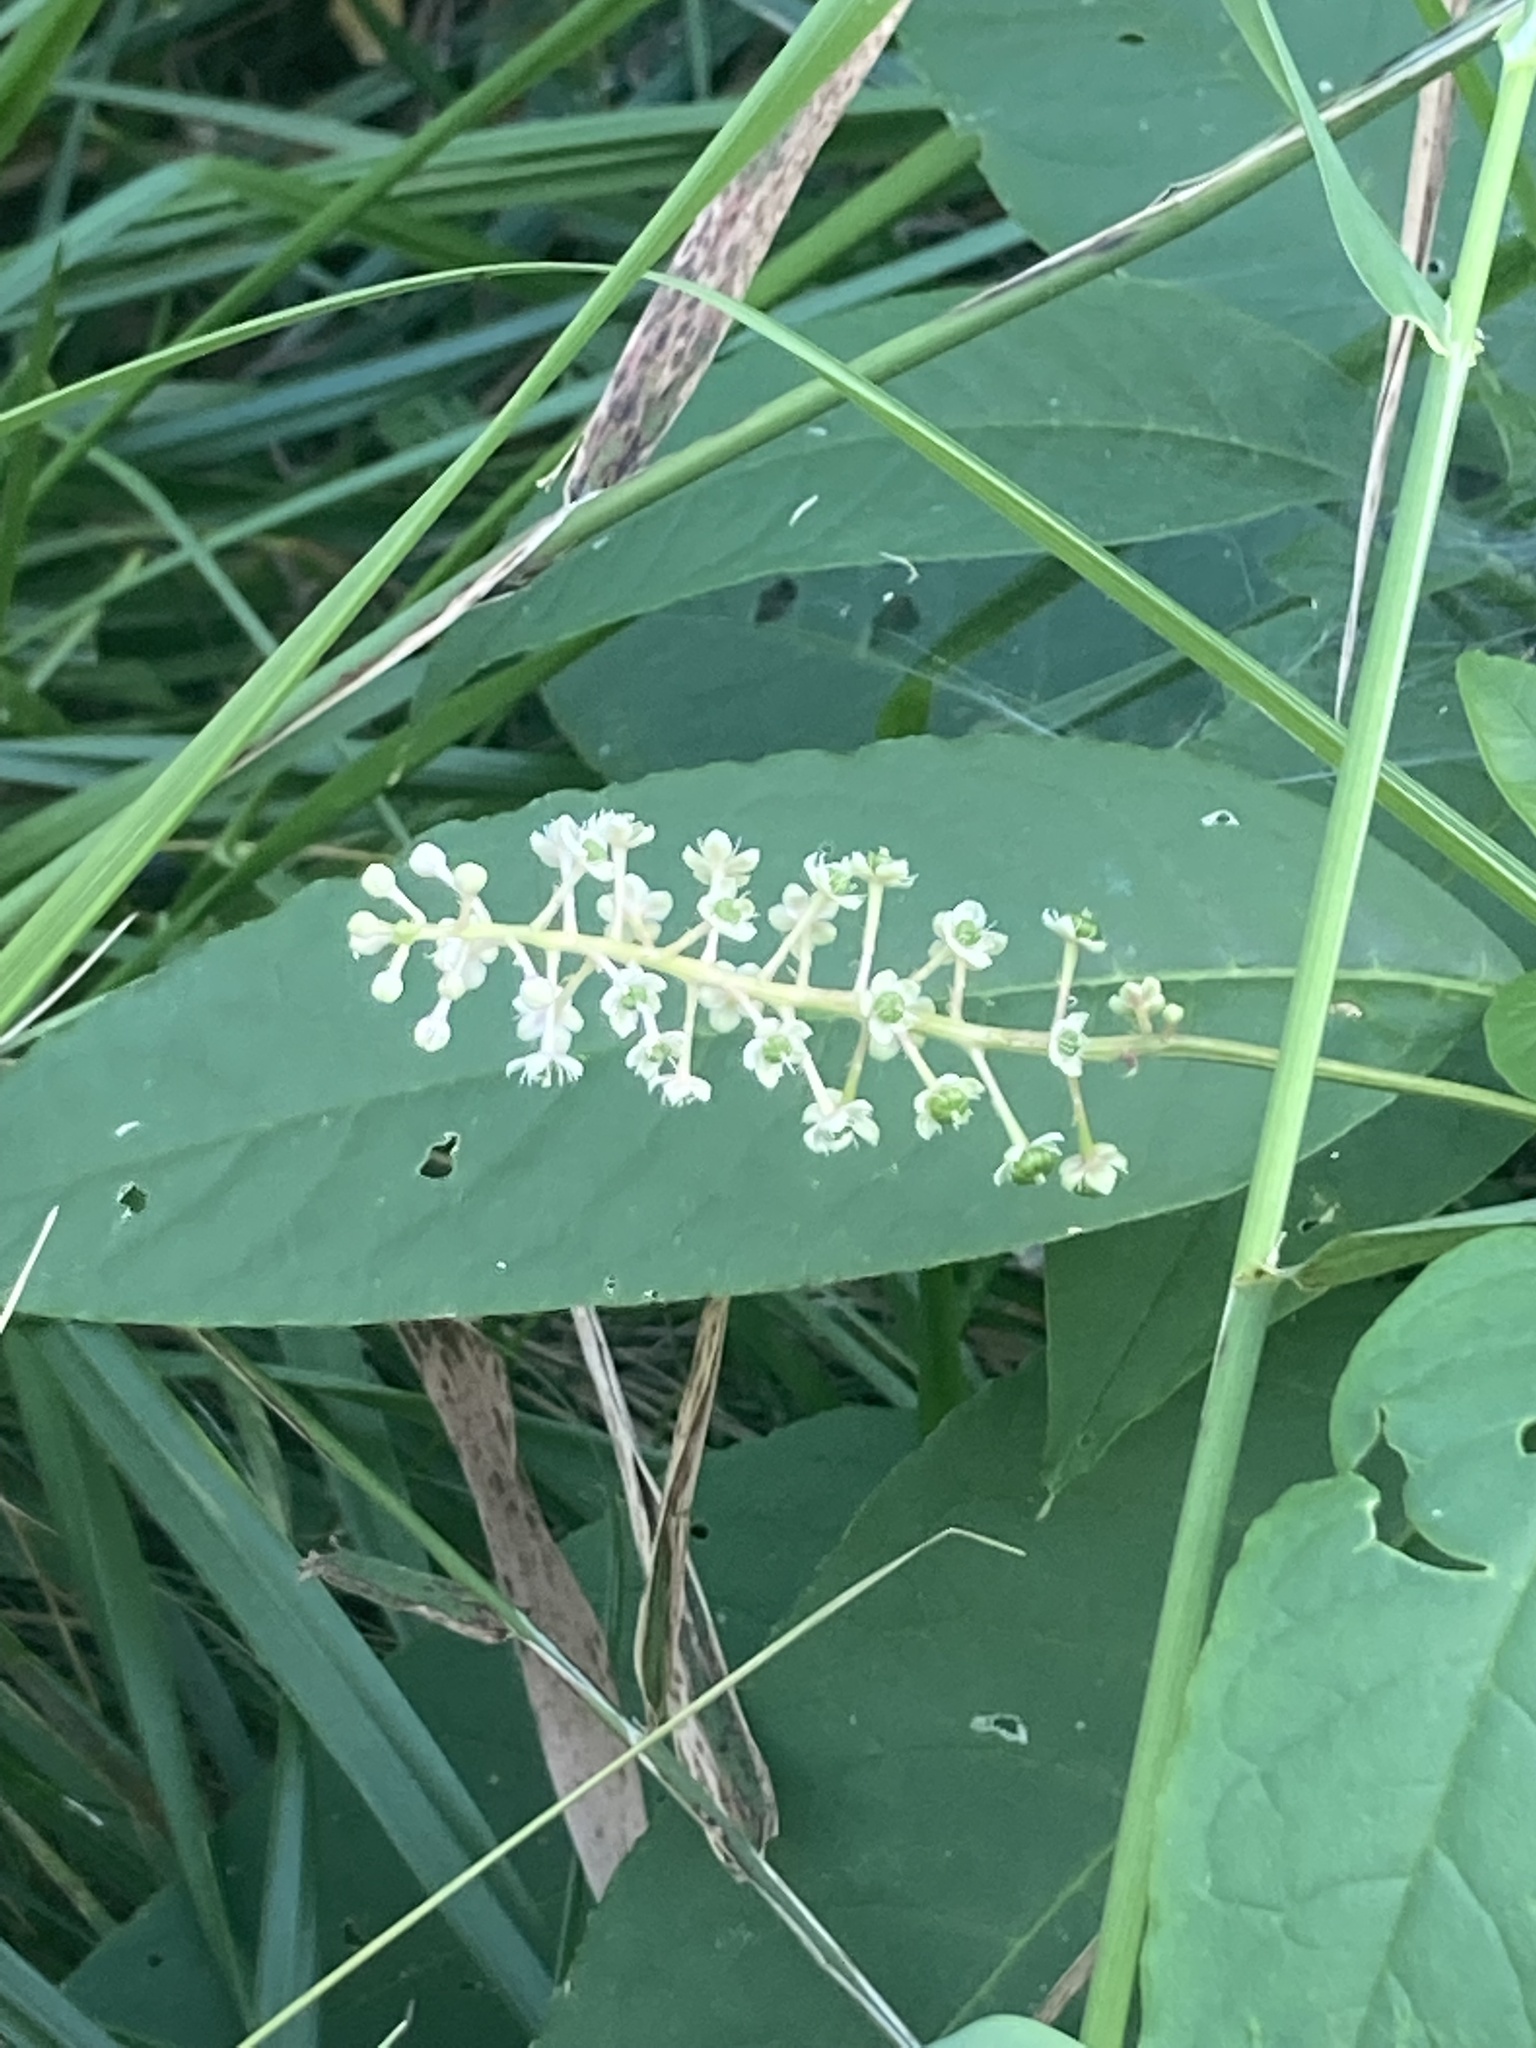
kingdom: Plantae
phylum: Tracheophyta
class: Magnoliopsida
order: Caryophyllales
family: Phytolaccaceae
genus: Phytolacca
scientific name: Phytolacca americana
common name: American pokeweed
